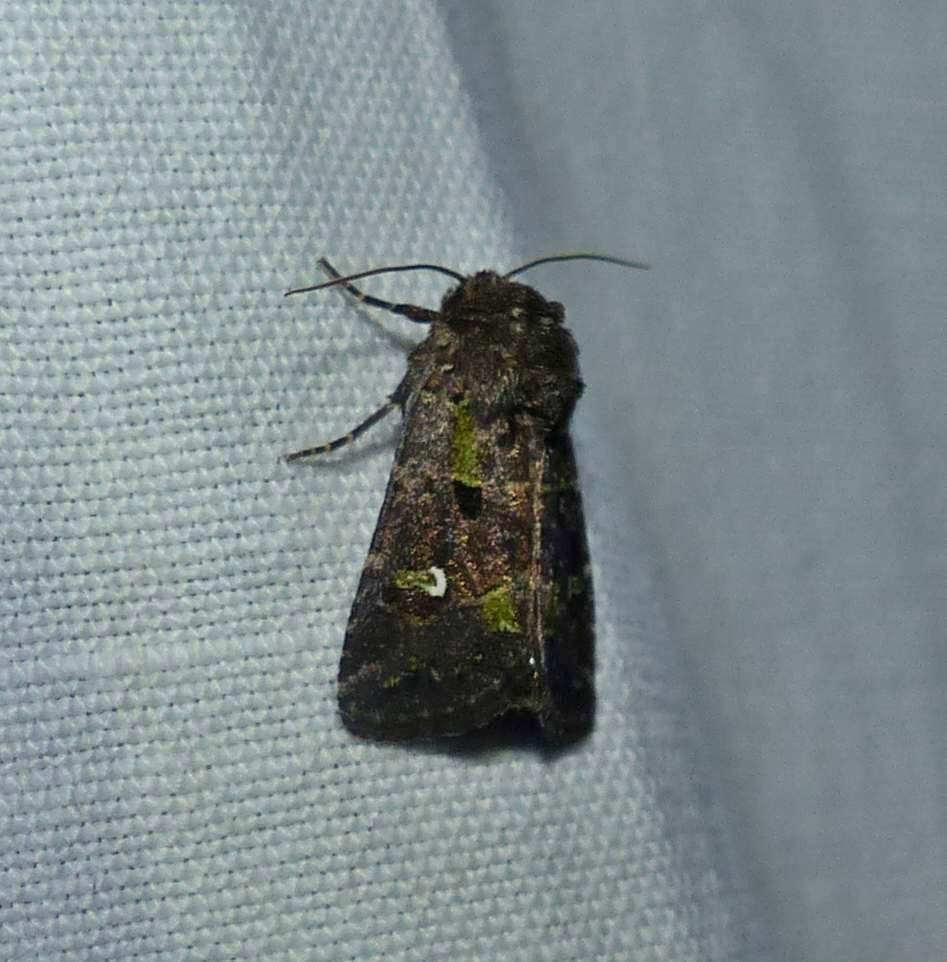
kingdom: Animalia
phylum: Arthropoda
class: Insecta
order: Lepidoptera
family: Noctuidae
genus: Lacinipolia
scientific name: Lacinipolia renigera
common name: Kidney-spotted minor
